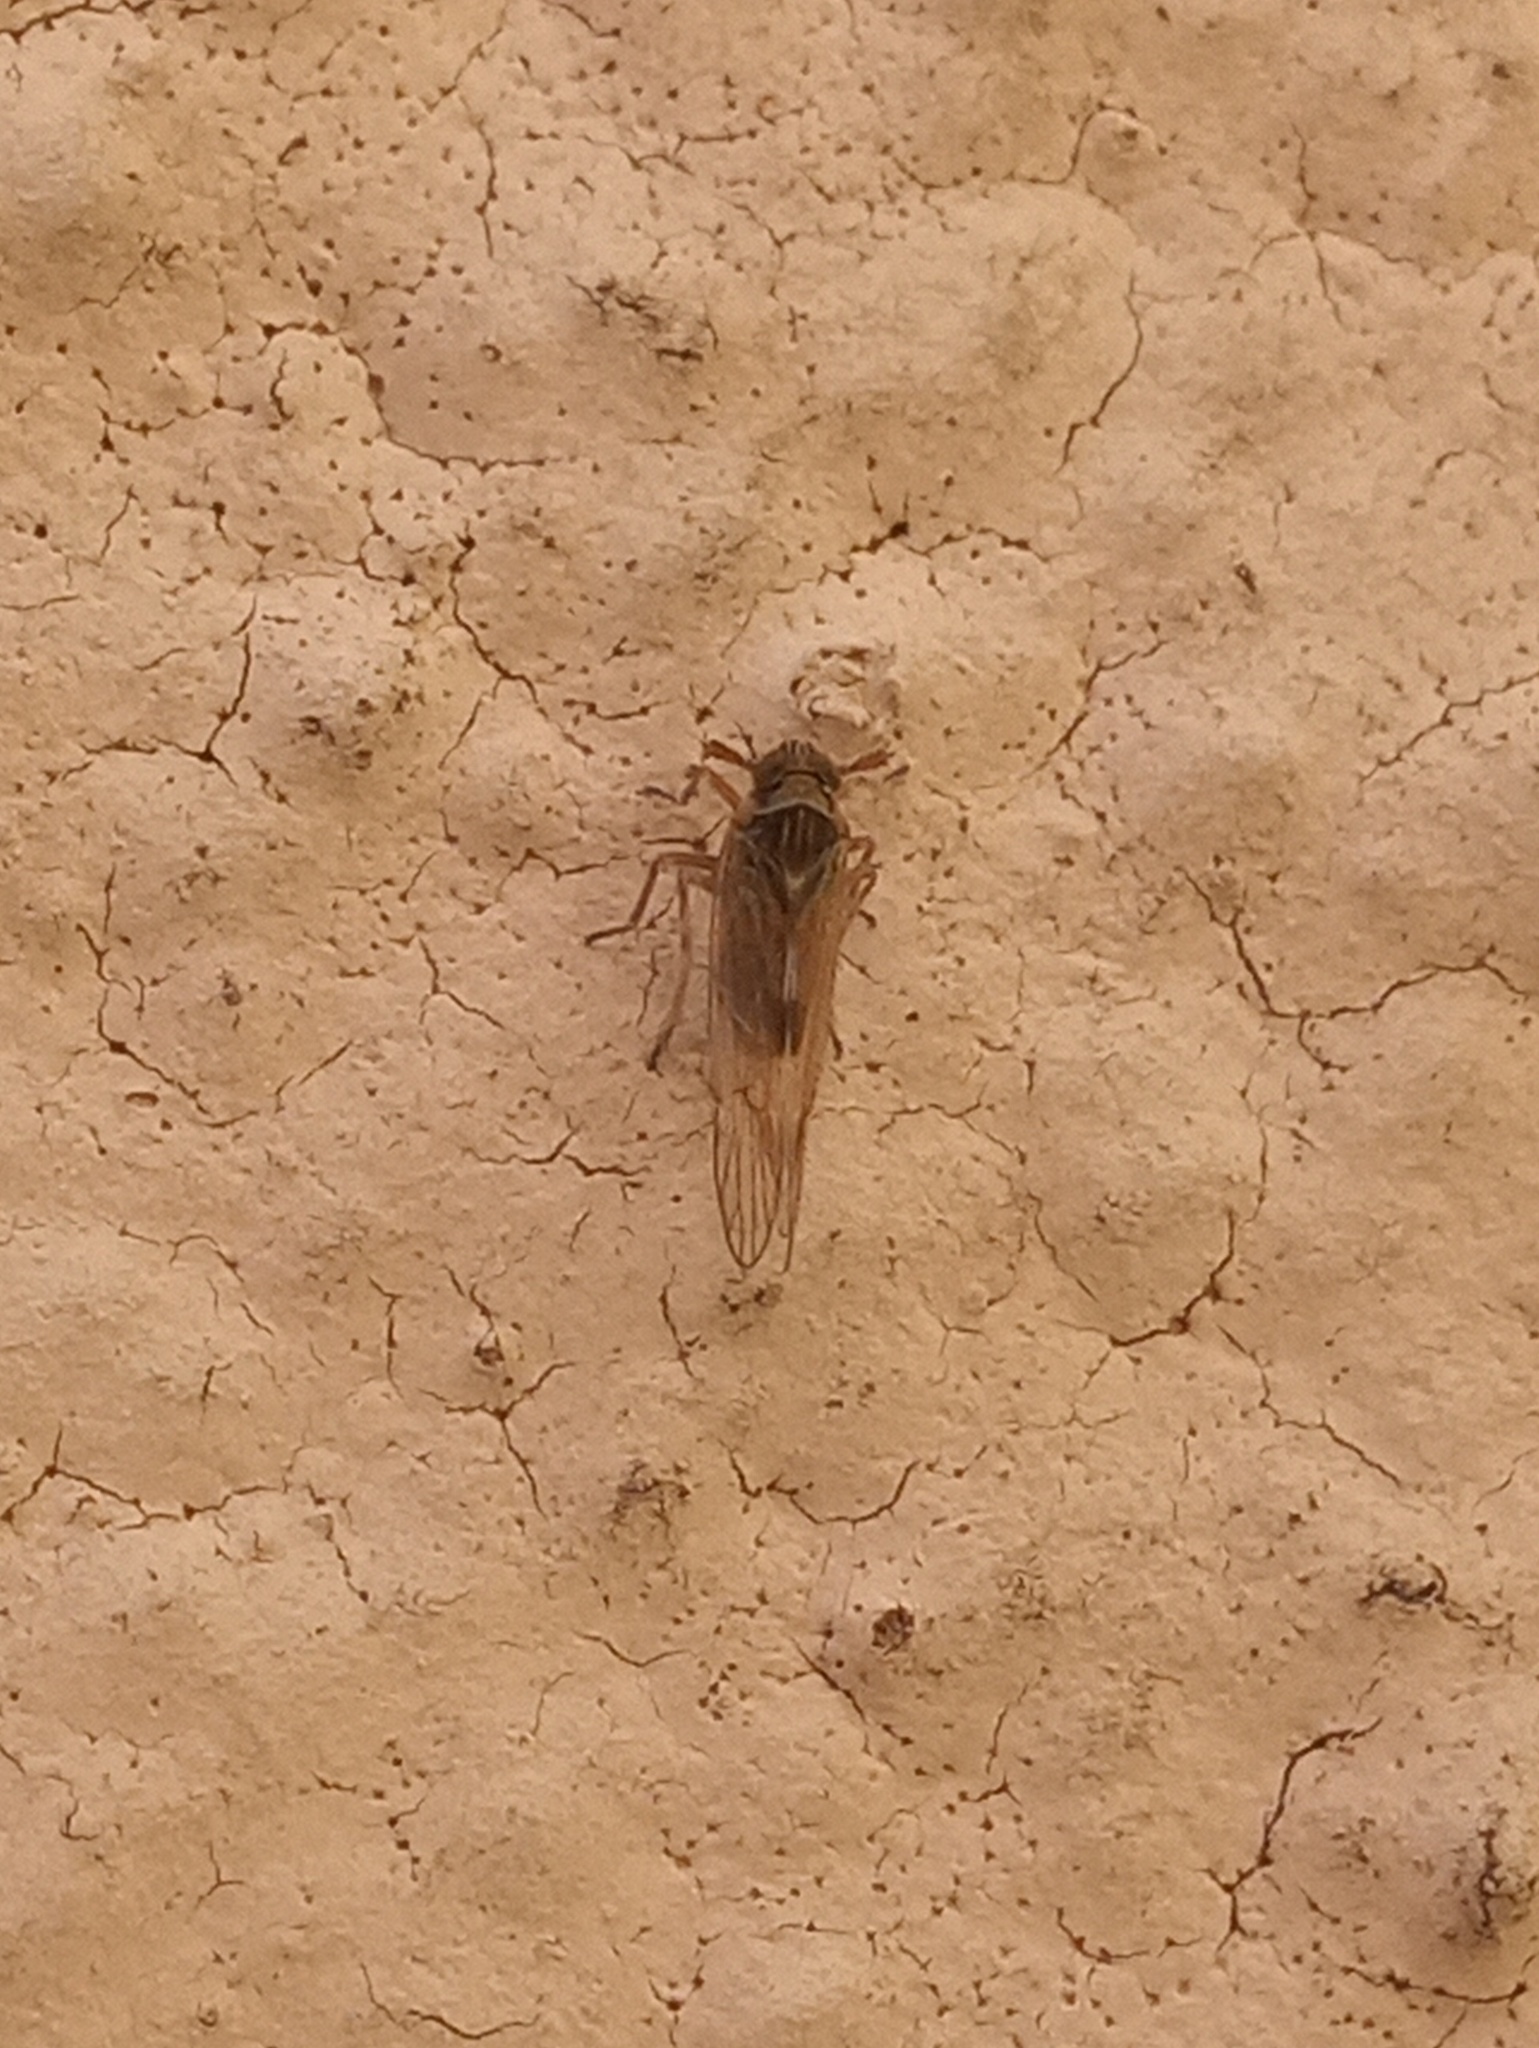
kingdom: Animalia
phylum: Arthropoda
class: Insecta
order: Hemiptera
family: Delphacidae
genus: Chionomus
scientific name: Chionomus
